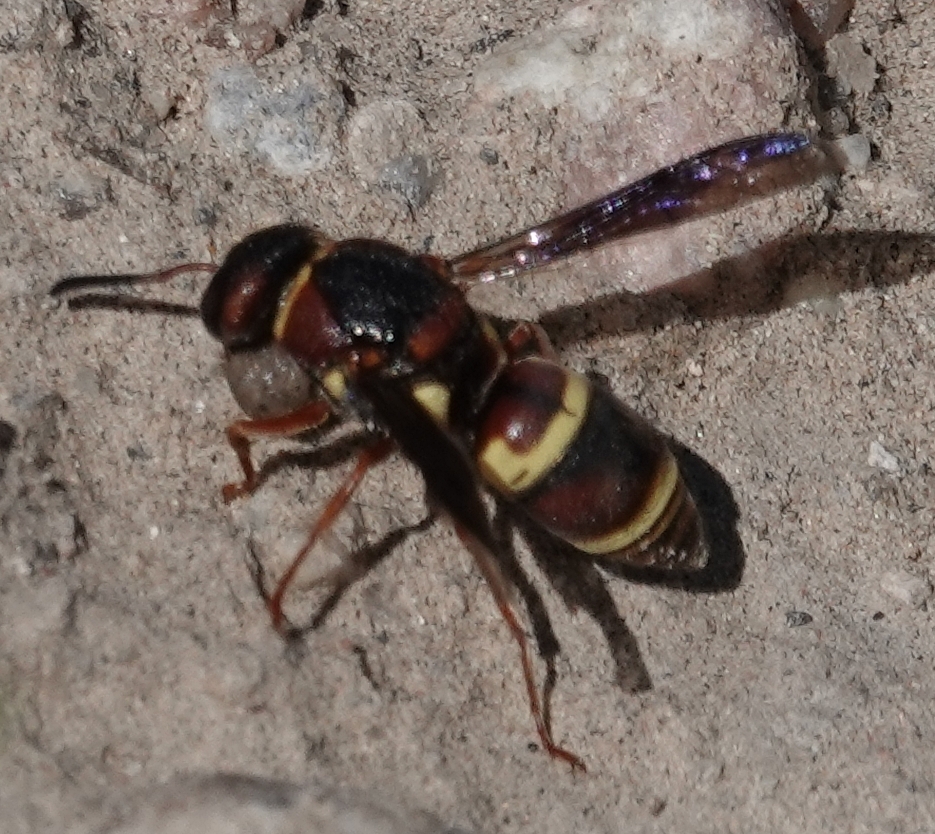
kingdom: Animalia
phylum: Arthropoda
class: Insecta
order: Hymenoptera
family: Eumenidae
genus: Euodynerus
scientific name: Euodynerus crypticus
